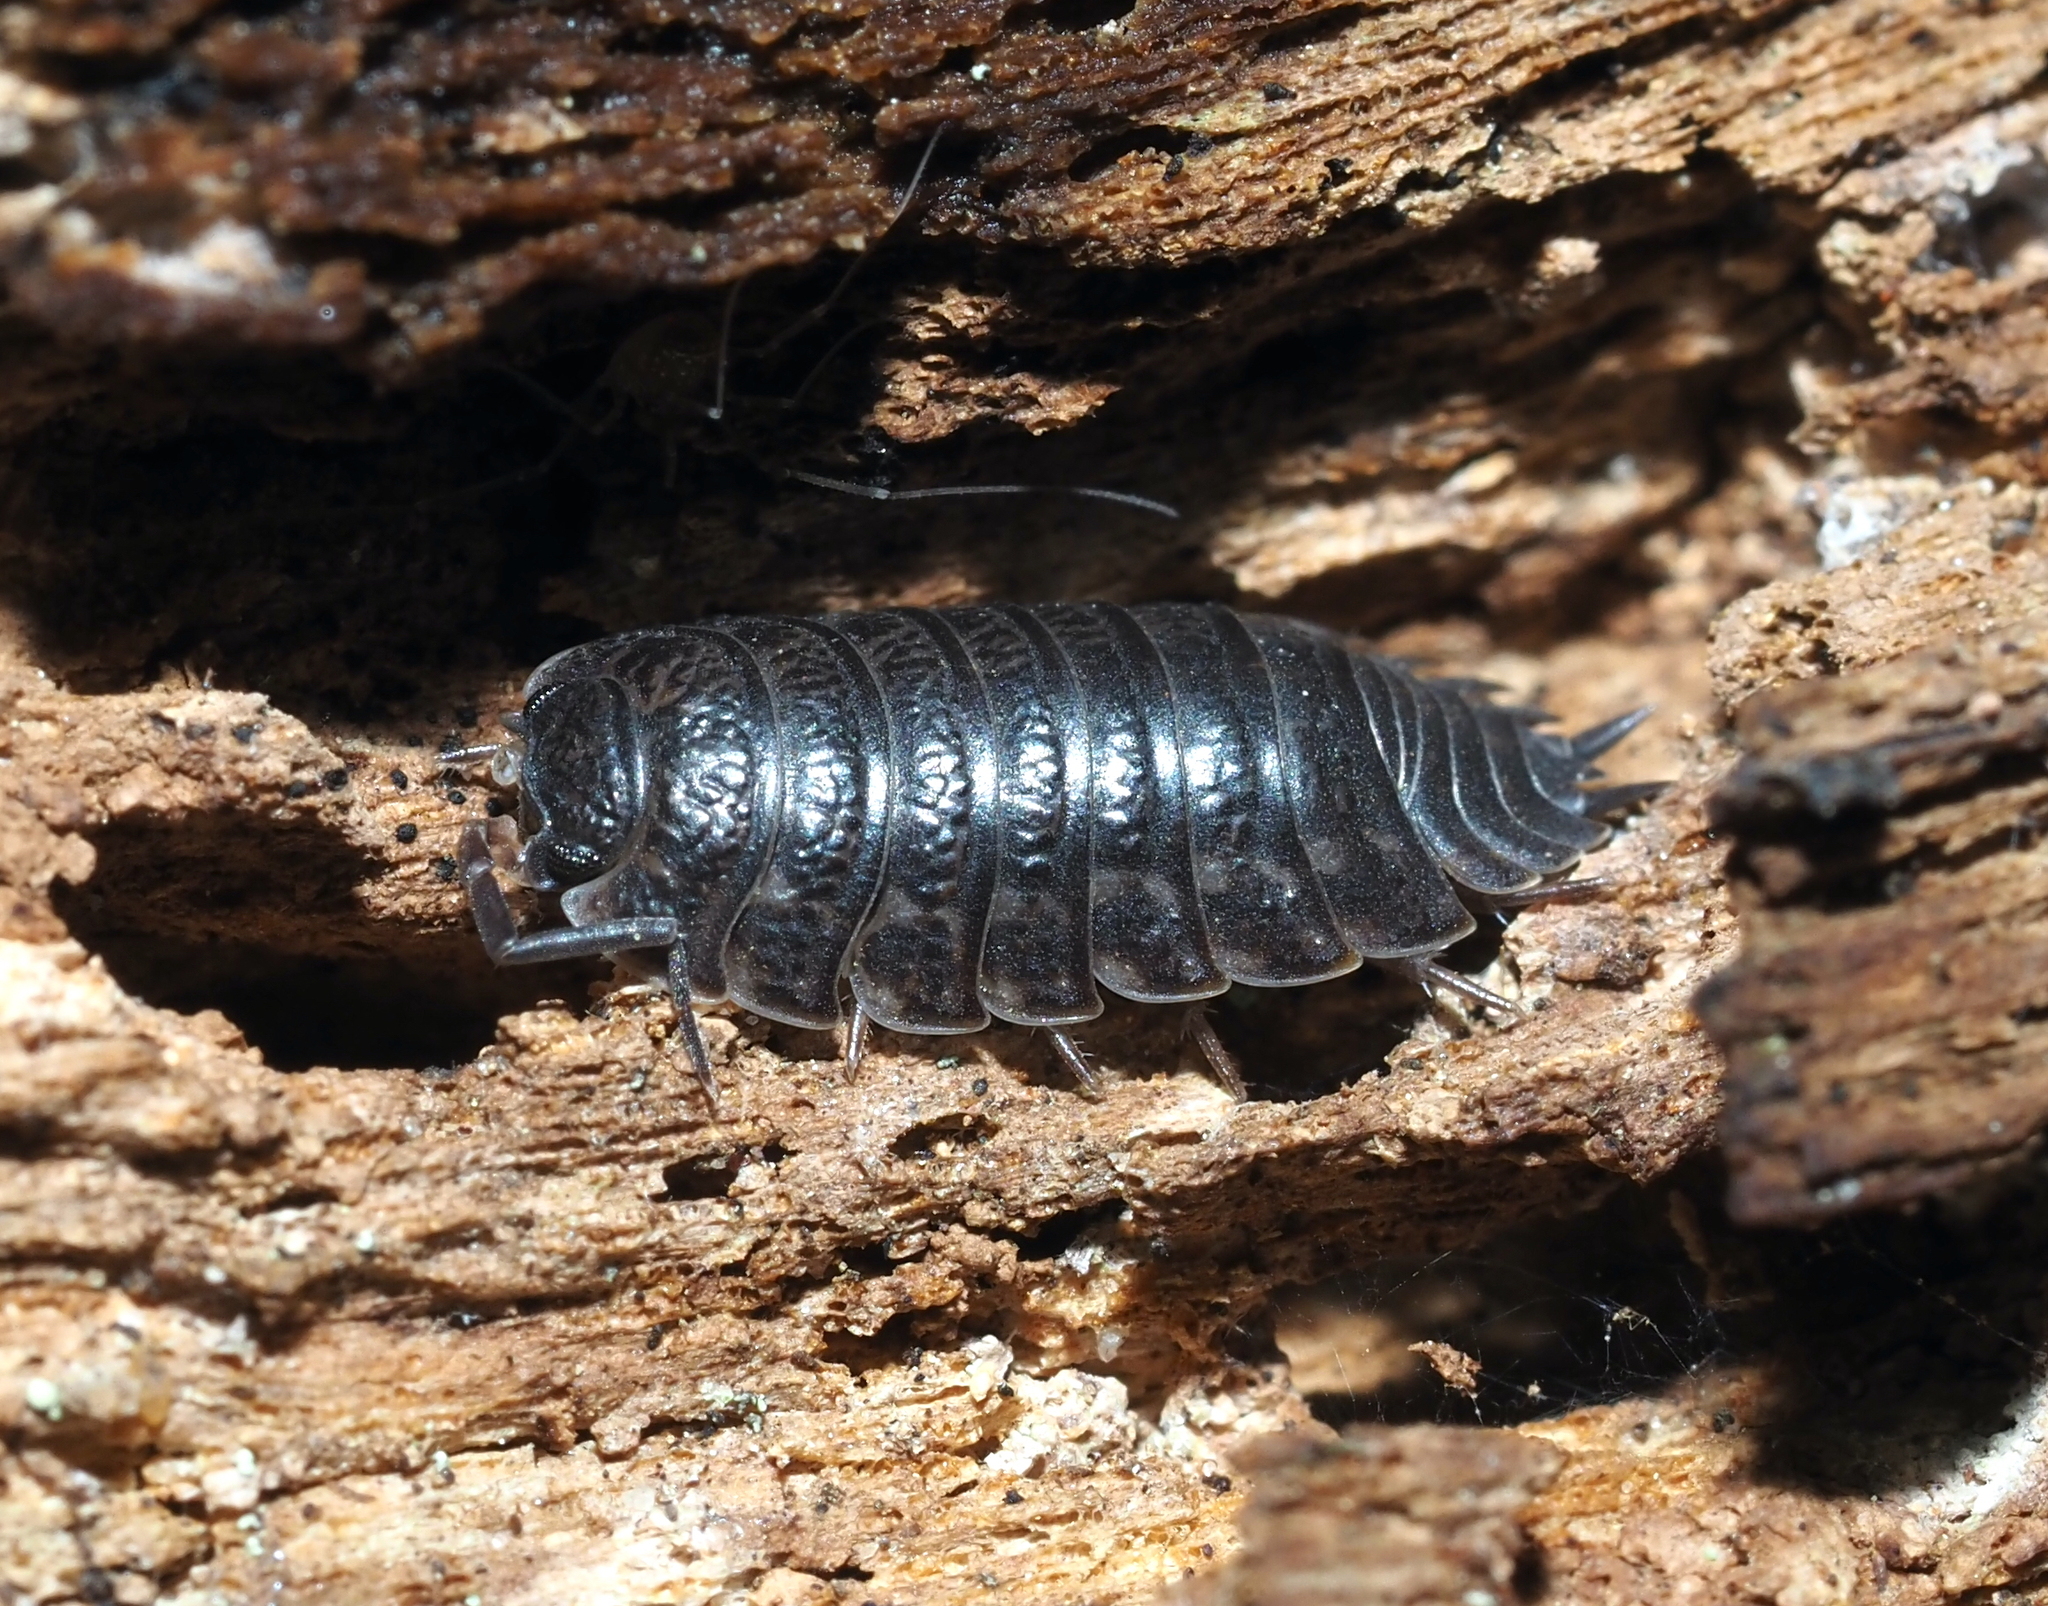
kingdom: Animalia
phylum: Arthropoda
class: Malacostraca
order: Isopoda
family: Trachelipodidae
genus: Trachelipus
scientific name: Trachelipus rathkii
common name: Isopod
